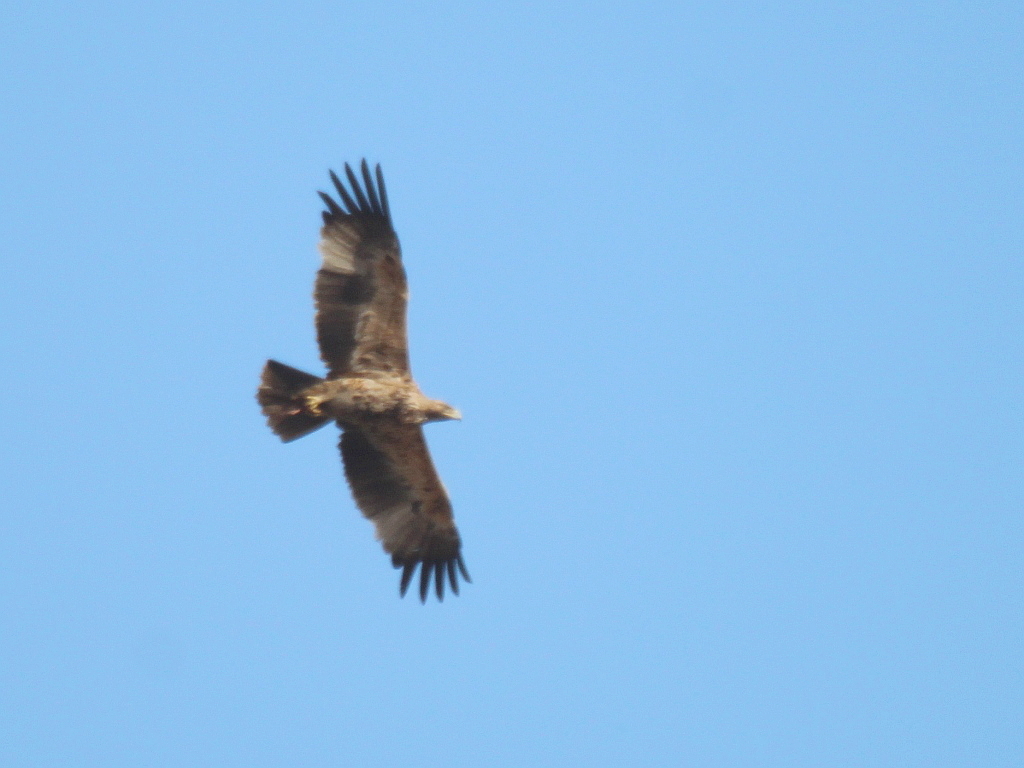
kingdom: Animalia
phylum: Chordata
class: Aves
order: Accipitriformes
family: Accipitridae
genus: Aquila
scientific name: Aquila heliaca
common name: Eastern imperial eagle
